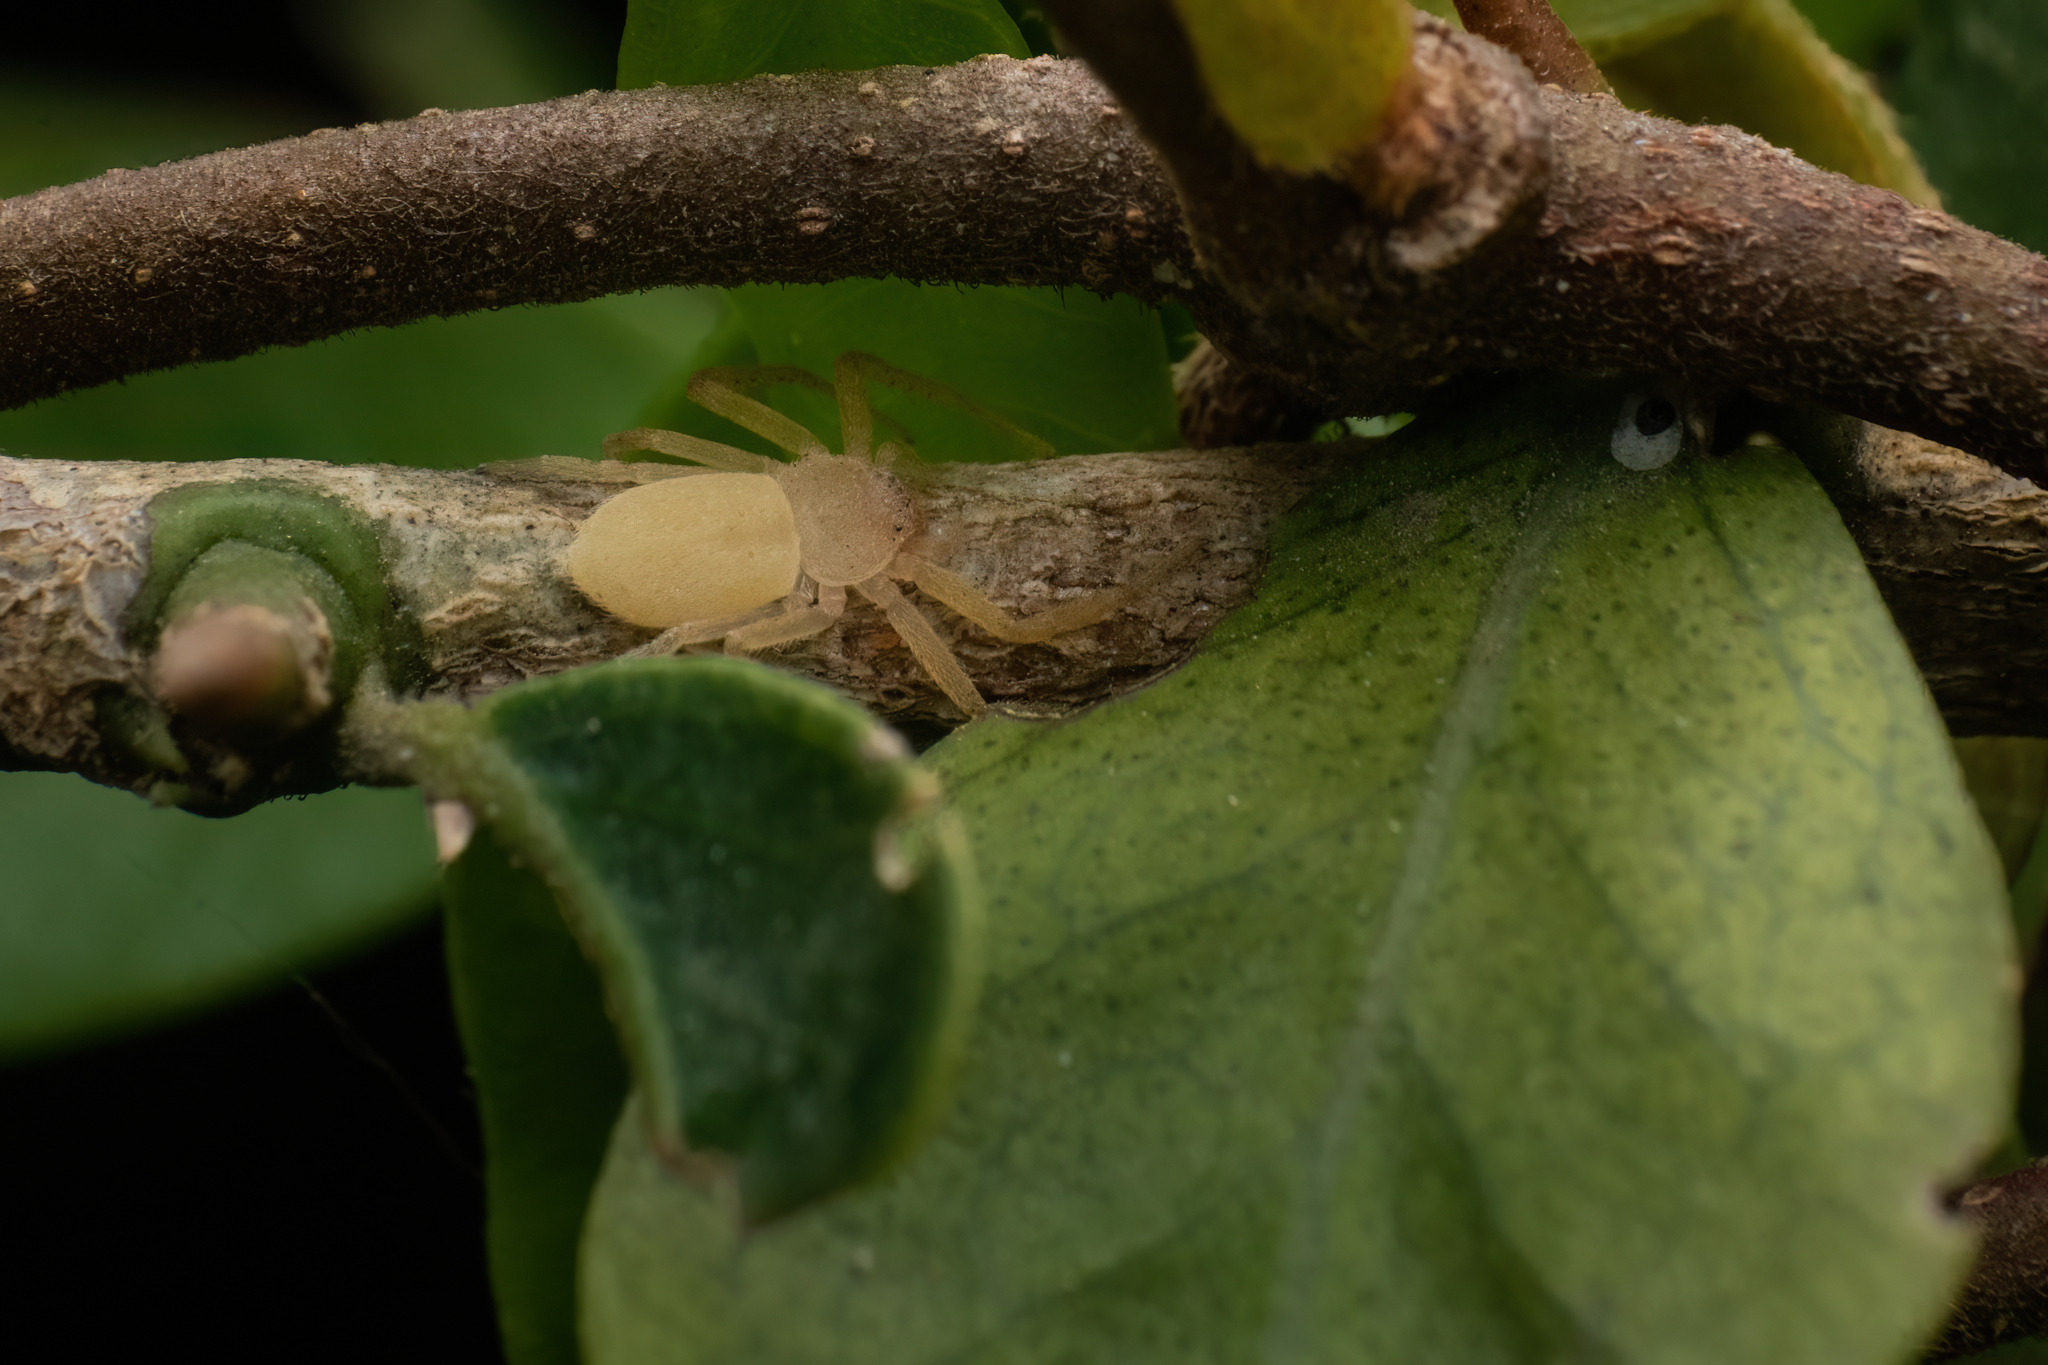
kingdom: Animalia
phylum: Arthropoda
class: Arachnida
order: Araneae
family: Philodromidae
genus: Psellonus
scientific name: Psellonus planus
